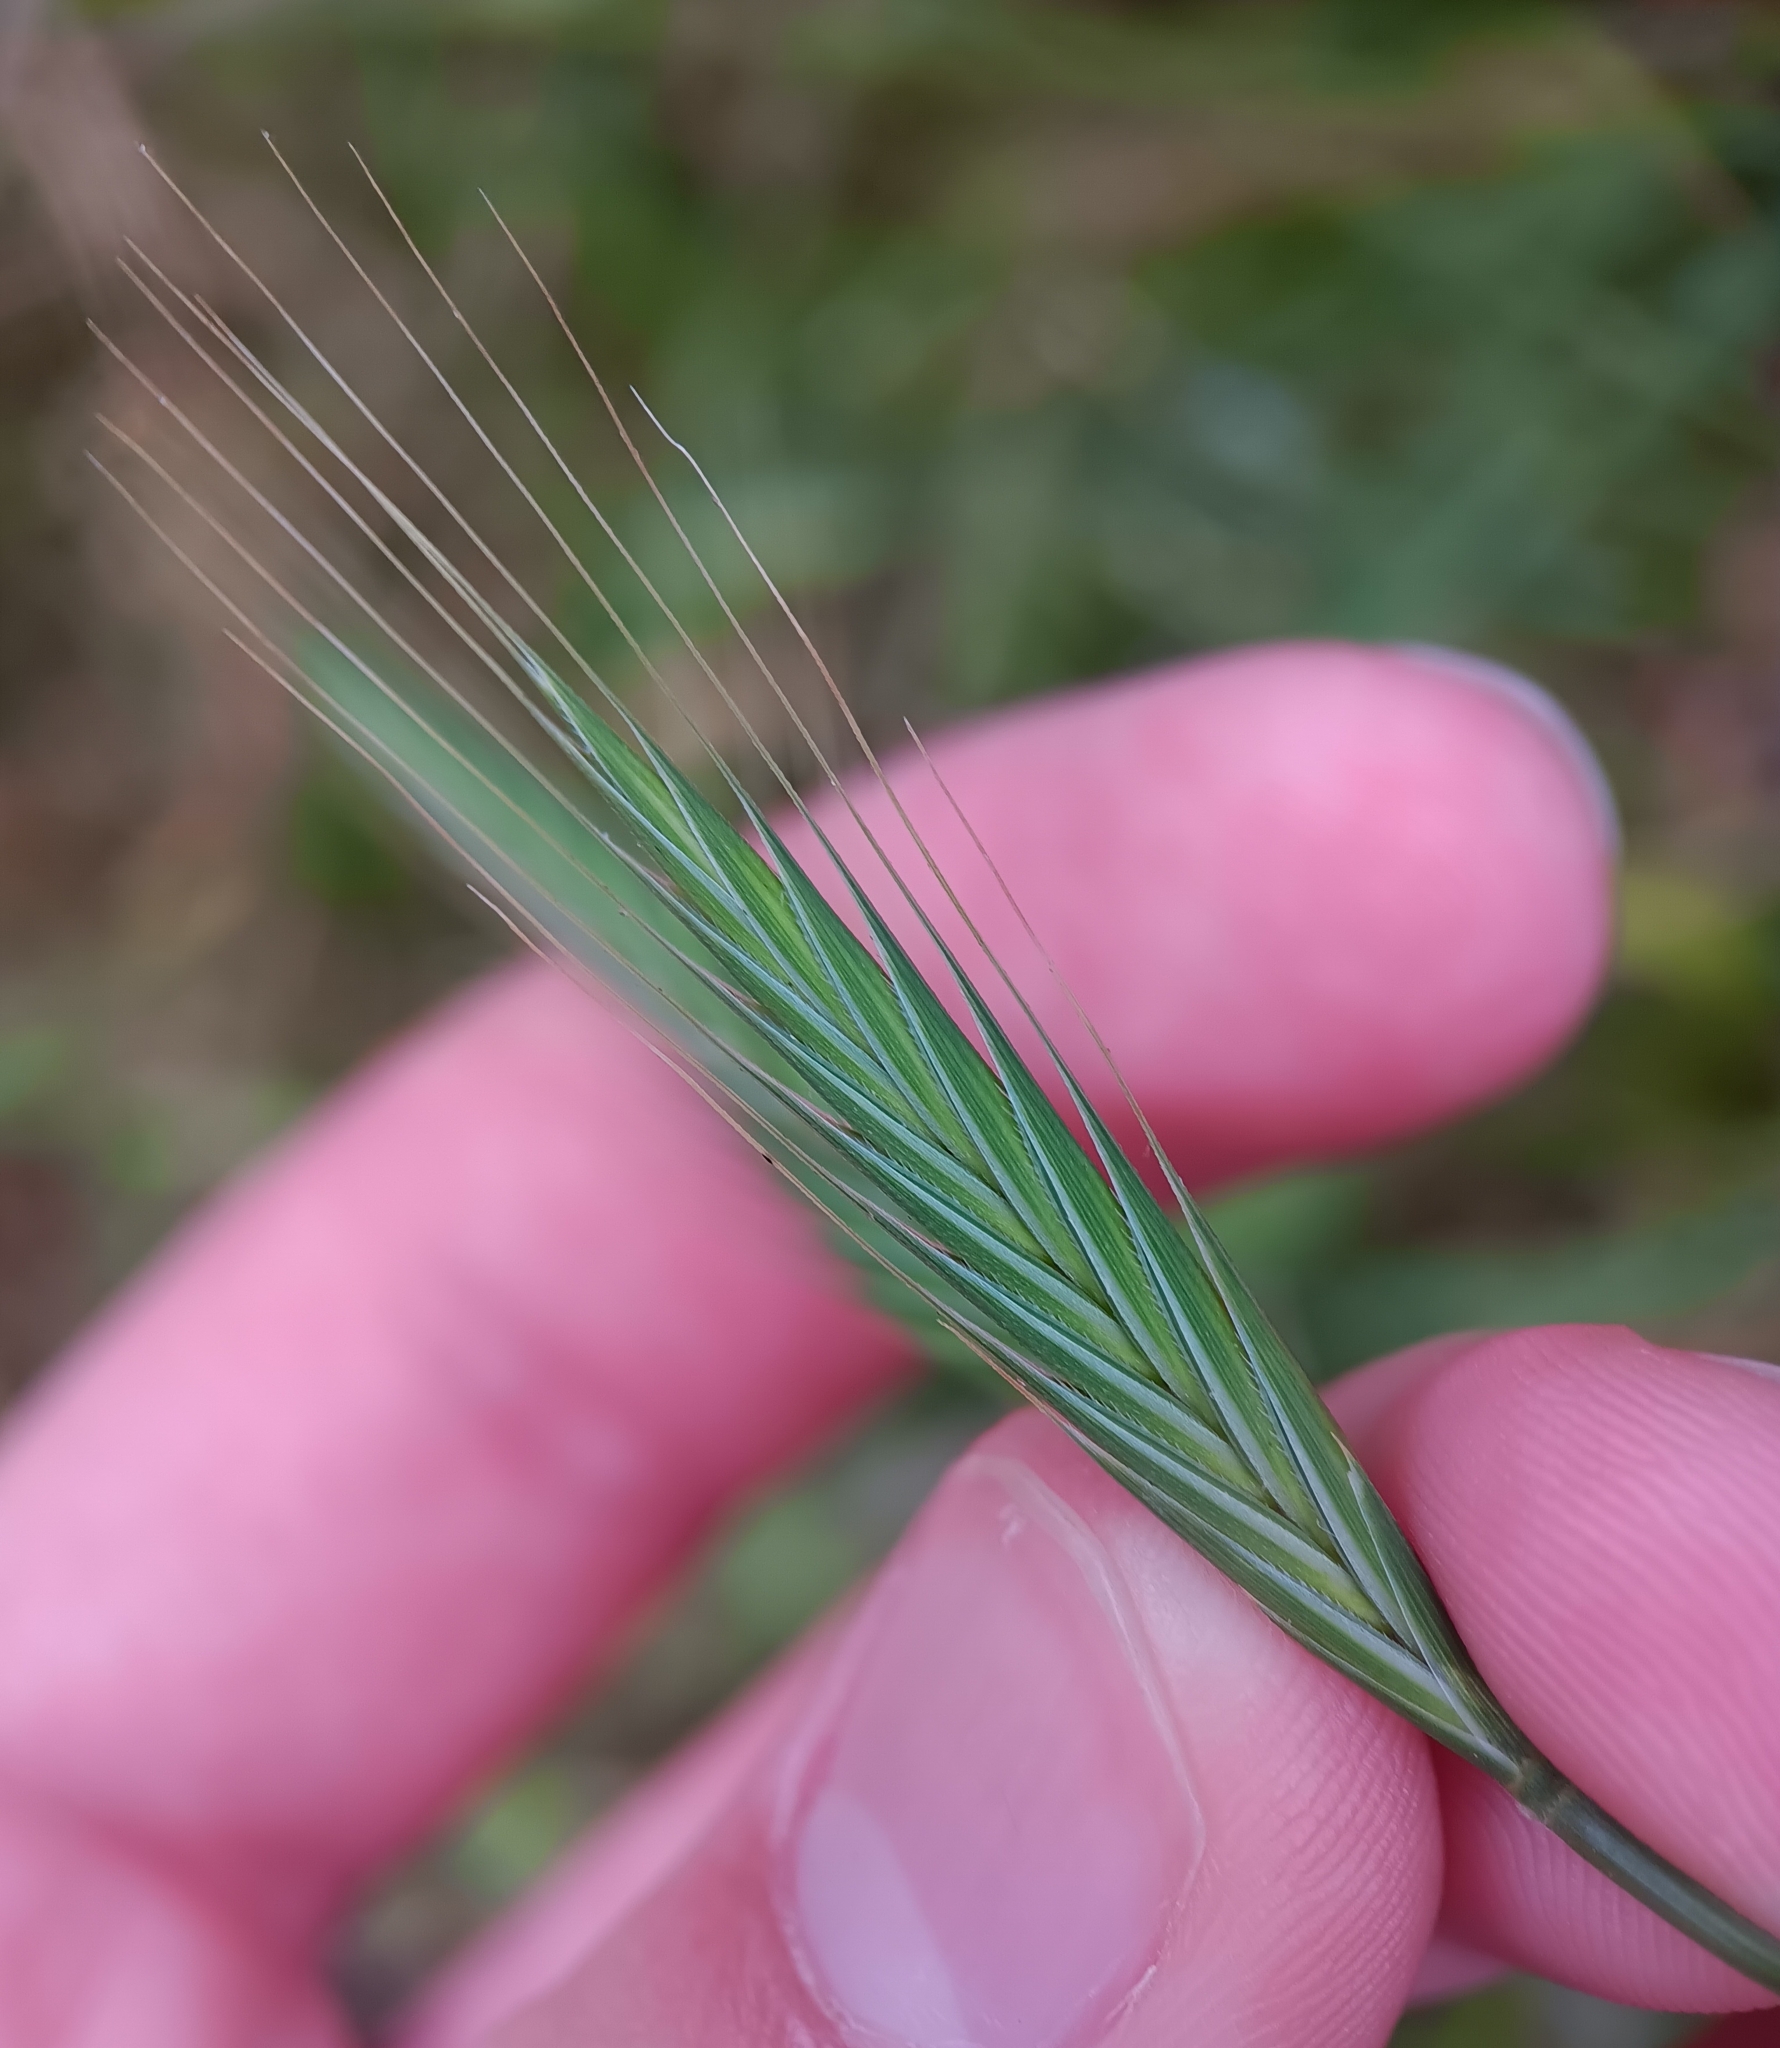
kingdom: Plantae
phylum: Tracheophyta
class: Liliopsida
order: Poales
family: Poaceae
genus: Brachypodium
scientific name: Brachypodium distachyon
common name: Stiff brome
